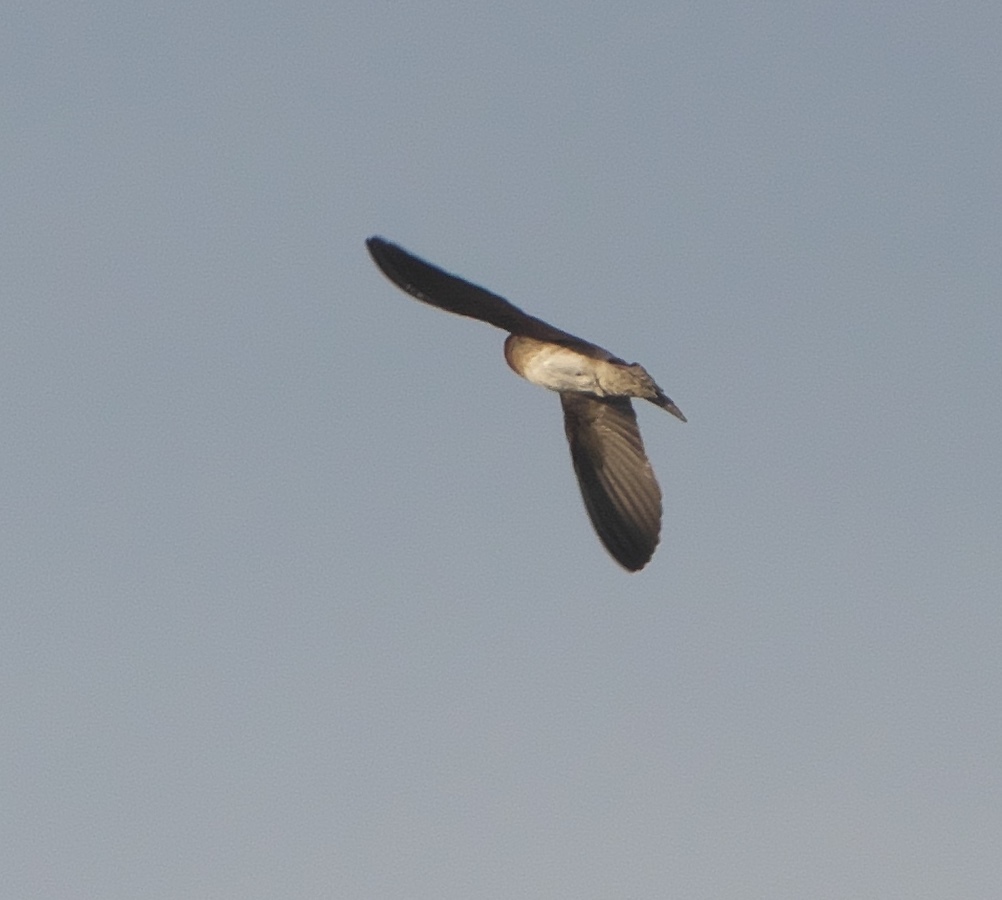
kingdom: Animalia
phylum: Chordata
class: Aves
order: Passeriformes
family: Hirundinidae
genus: Petrochelidon
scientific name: Petrochelidon pyrrhonota
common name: American cliff swallow
